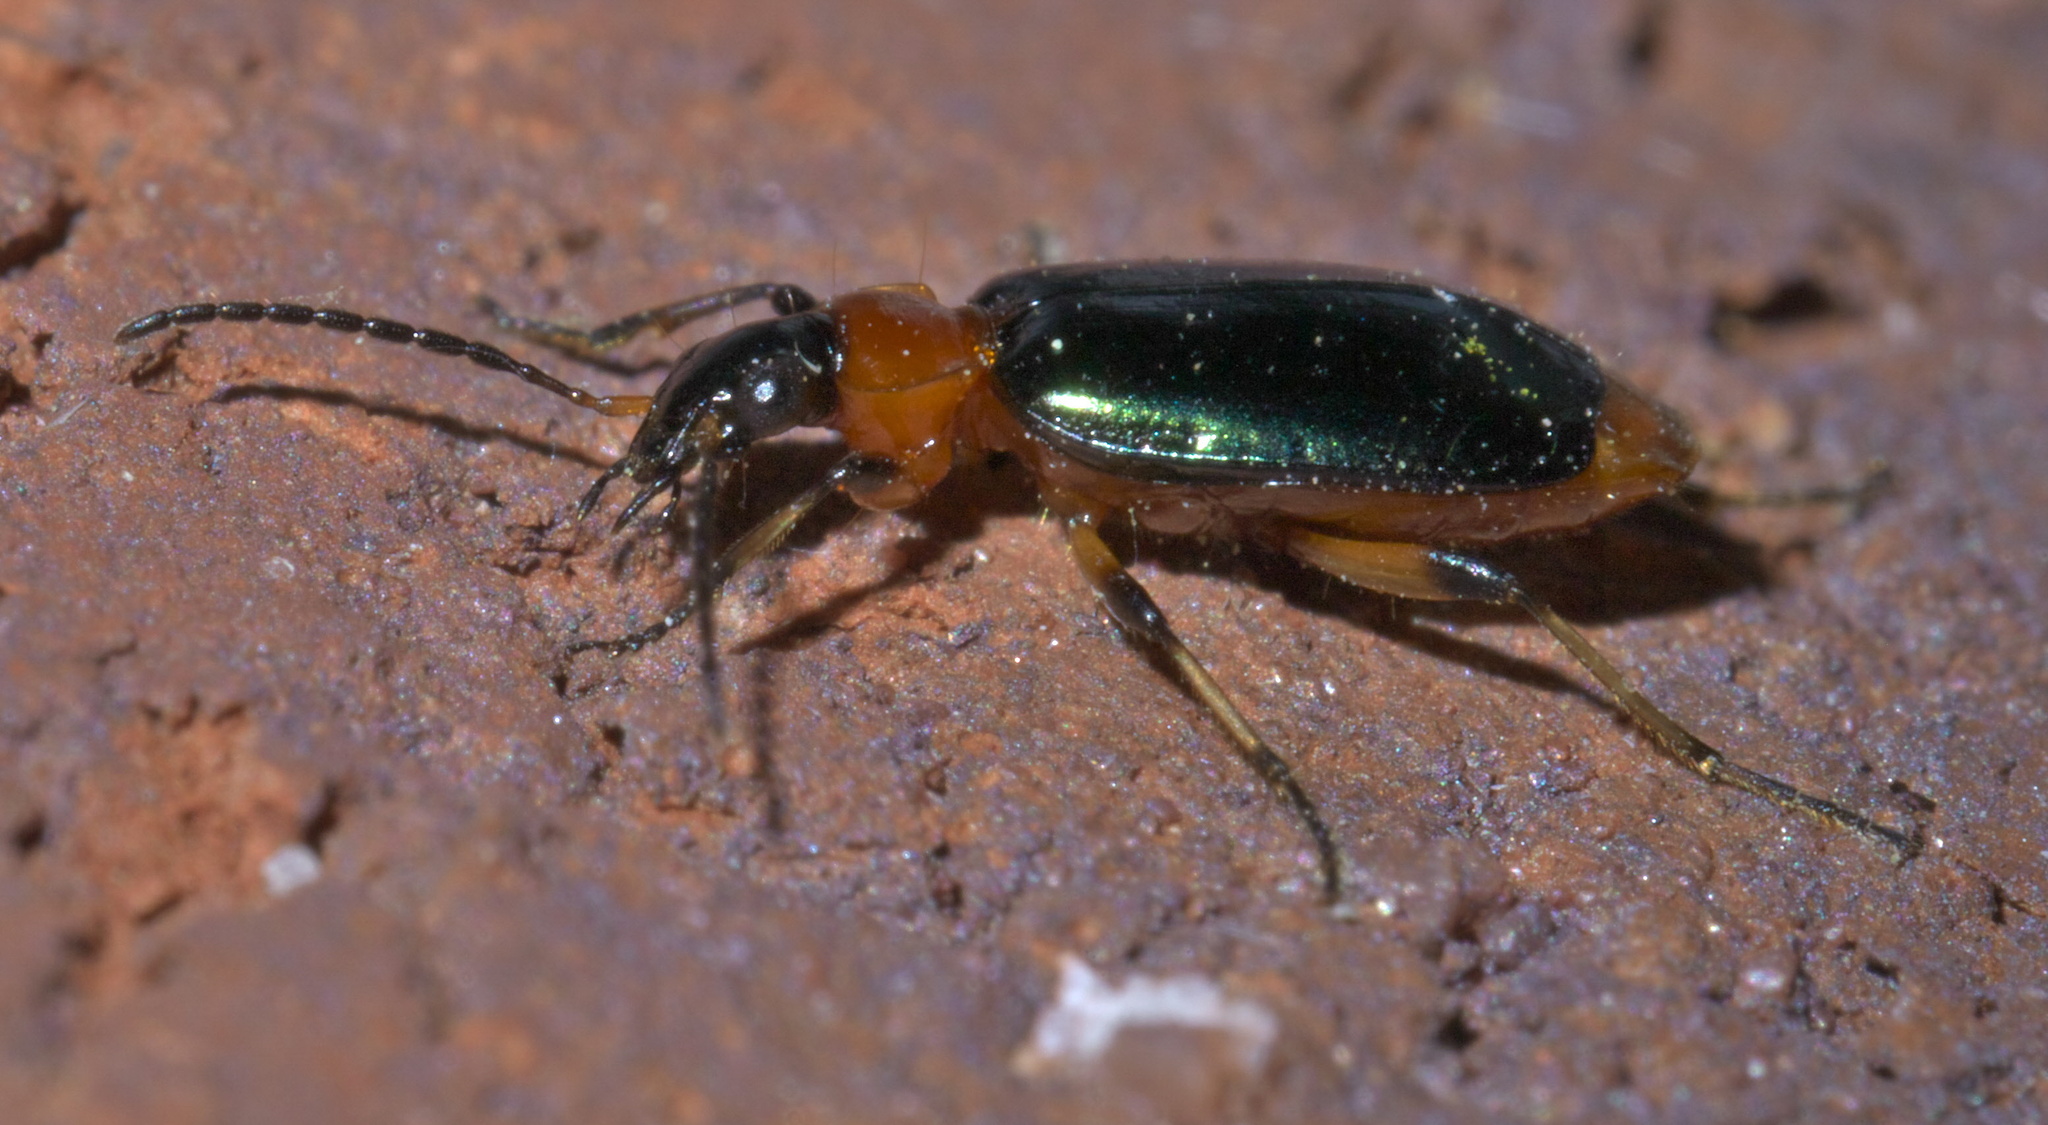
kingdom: Animalia
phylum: Arthropoda
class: Insecta
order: Coleoptera
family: Carabidae
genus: Lebia
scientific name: Lebia viridipennis
